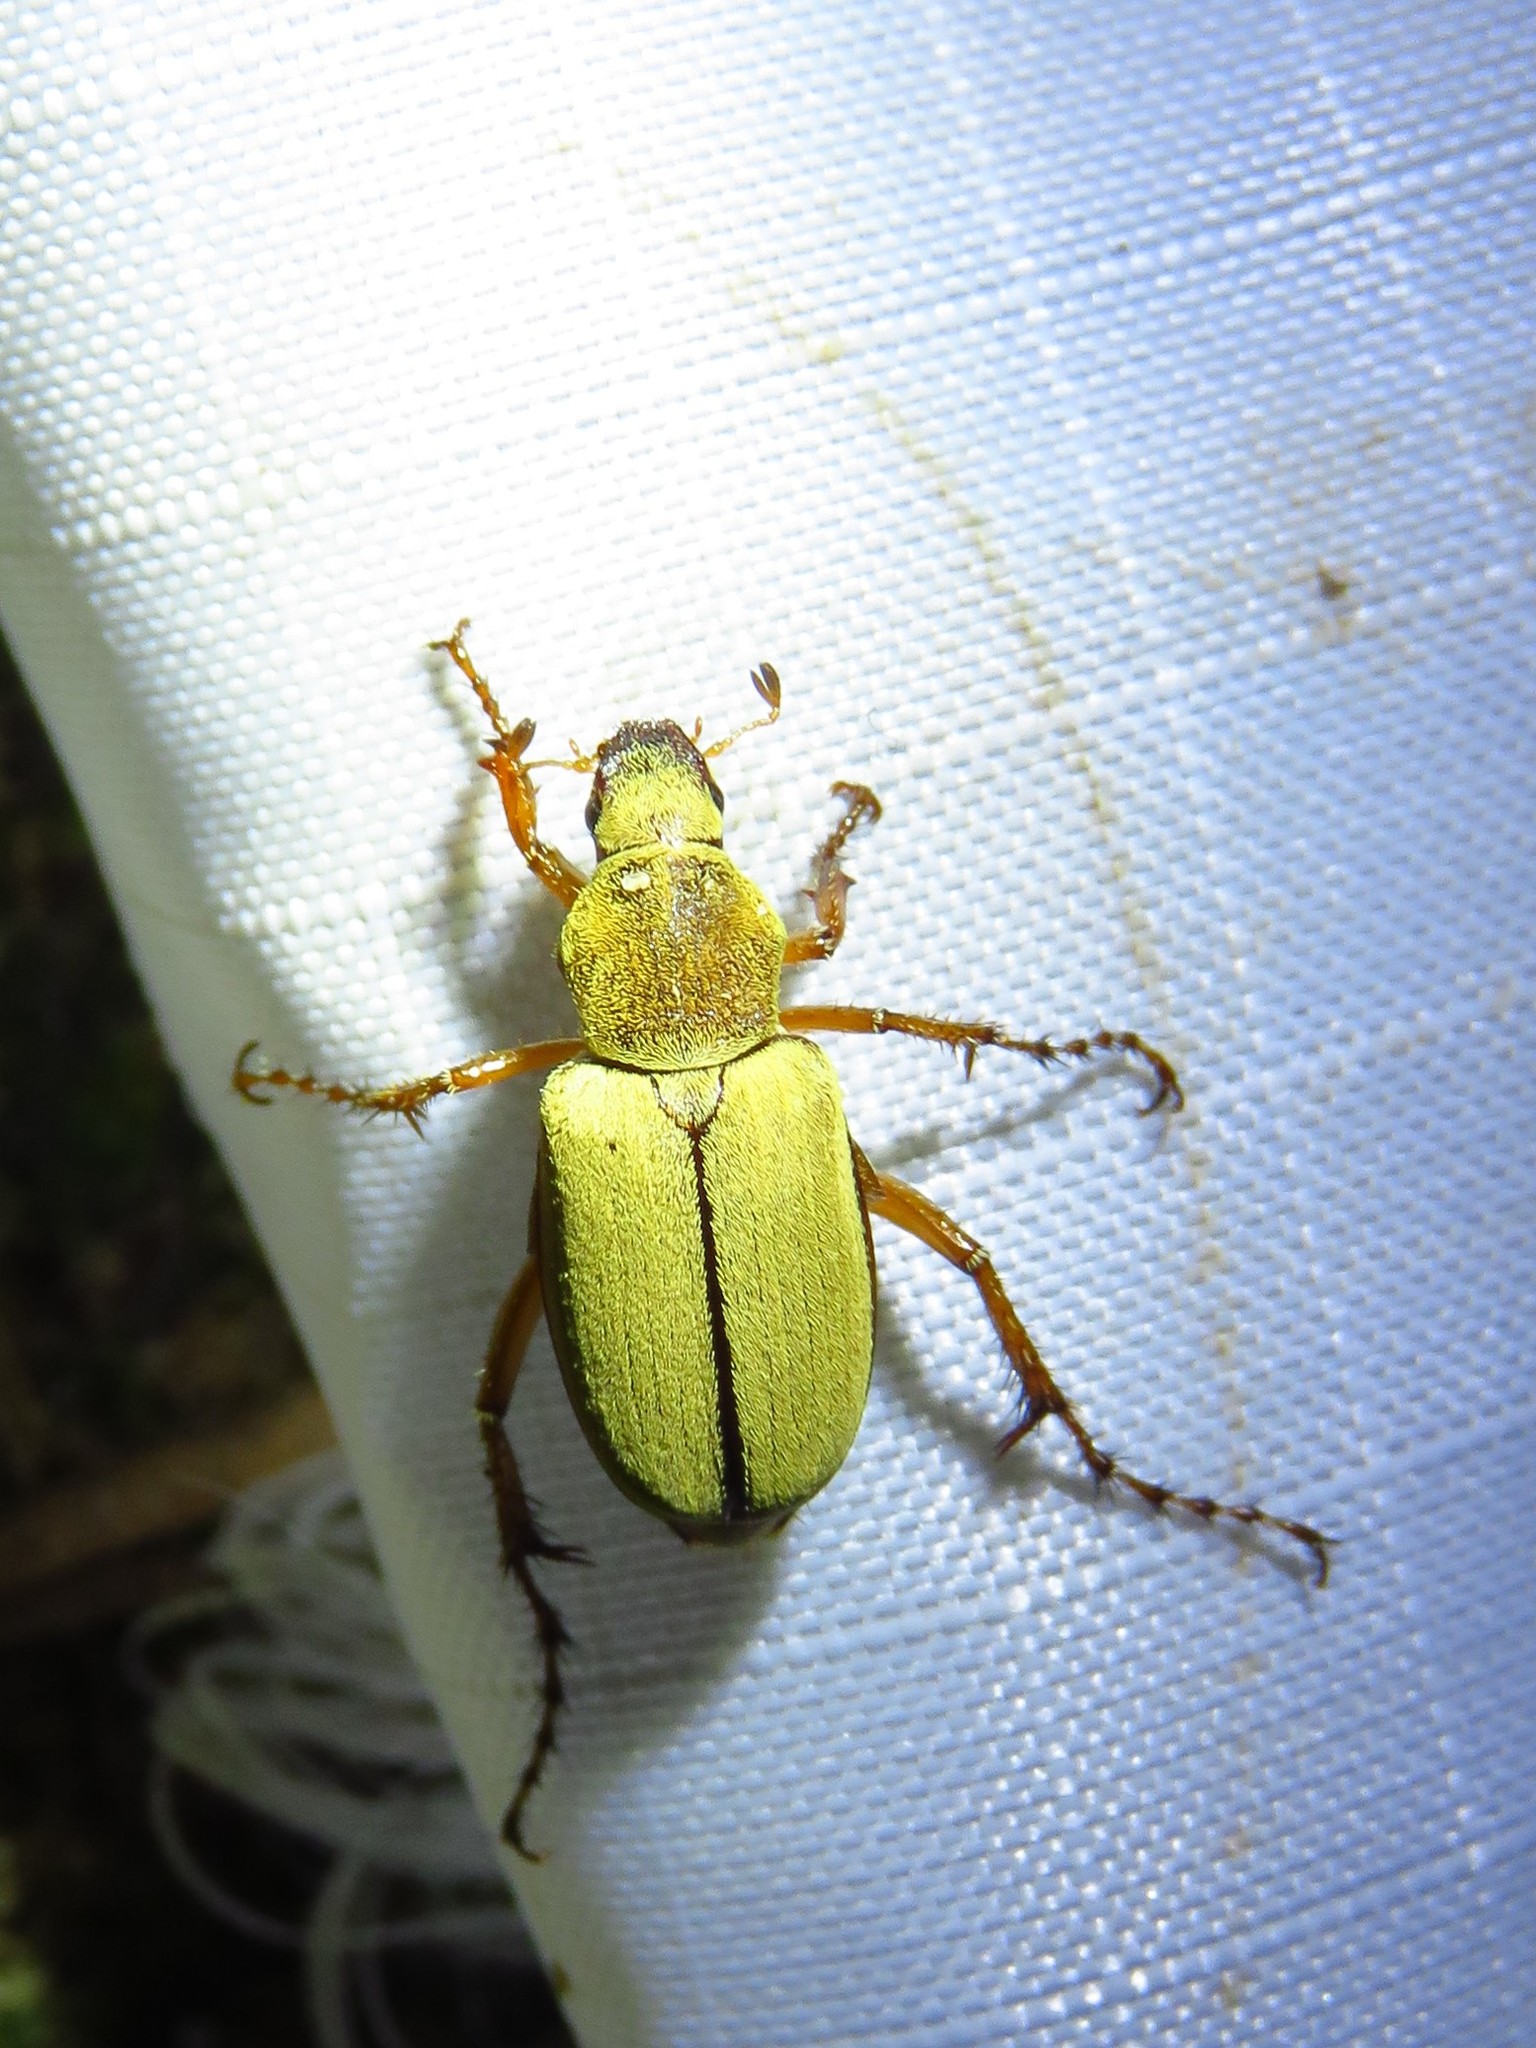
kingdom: Animalia
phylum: Arthropoda
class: Insecta
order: Coleoptera
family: Scarabaeidae
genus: Macrodactylus
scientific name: Macrodactylus subspinosus
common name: American rose chafer
